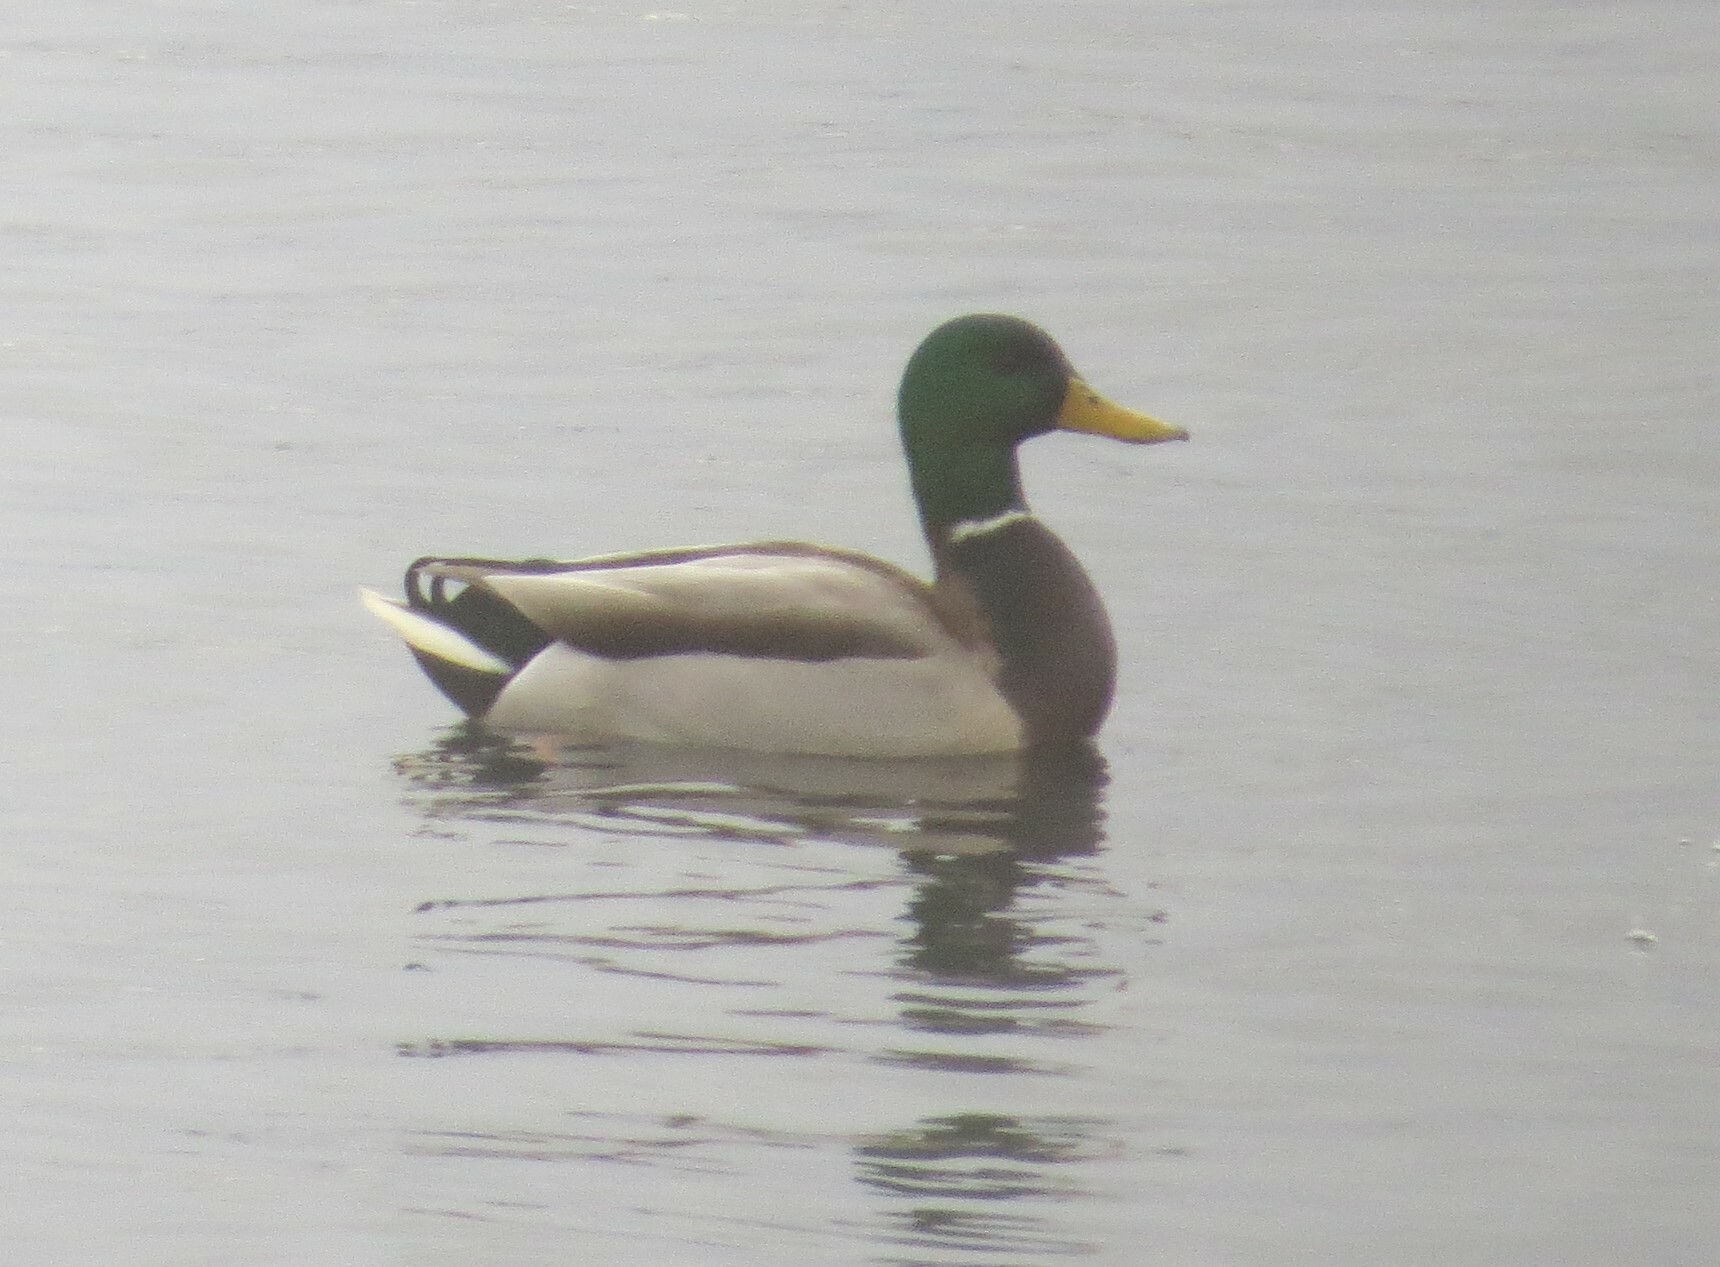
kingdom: Animalia
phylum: Chordata
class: Aves
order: Anseriformes
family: Anatidae
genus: Anas
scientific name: Anas platyrhynchos
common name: Mallard
